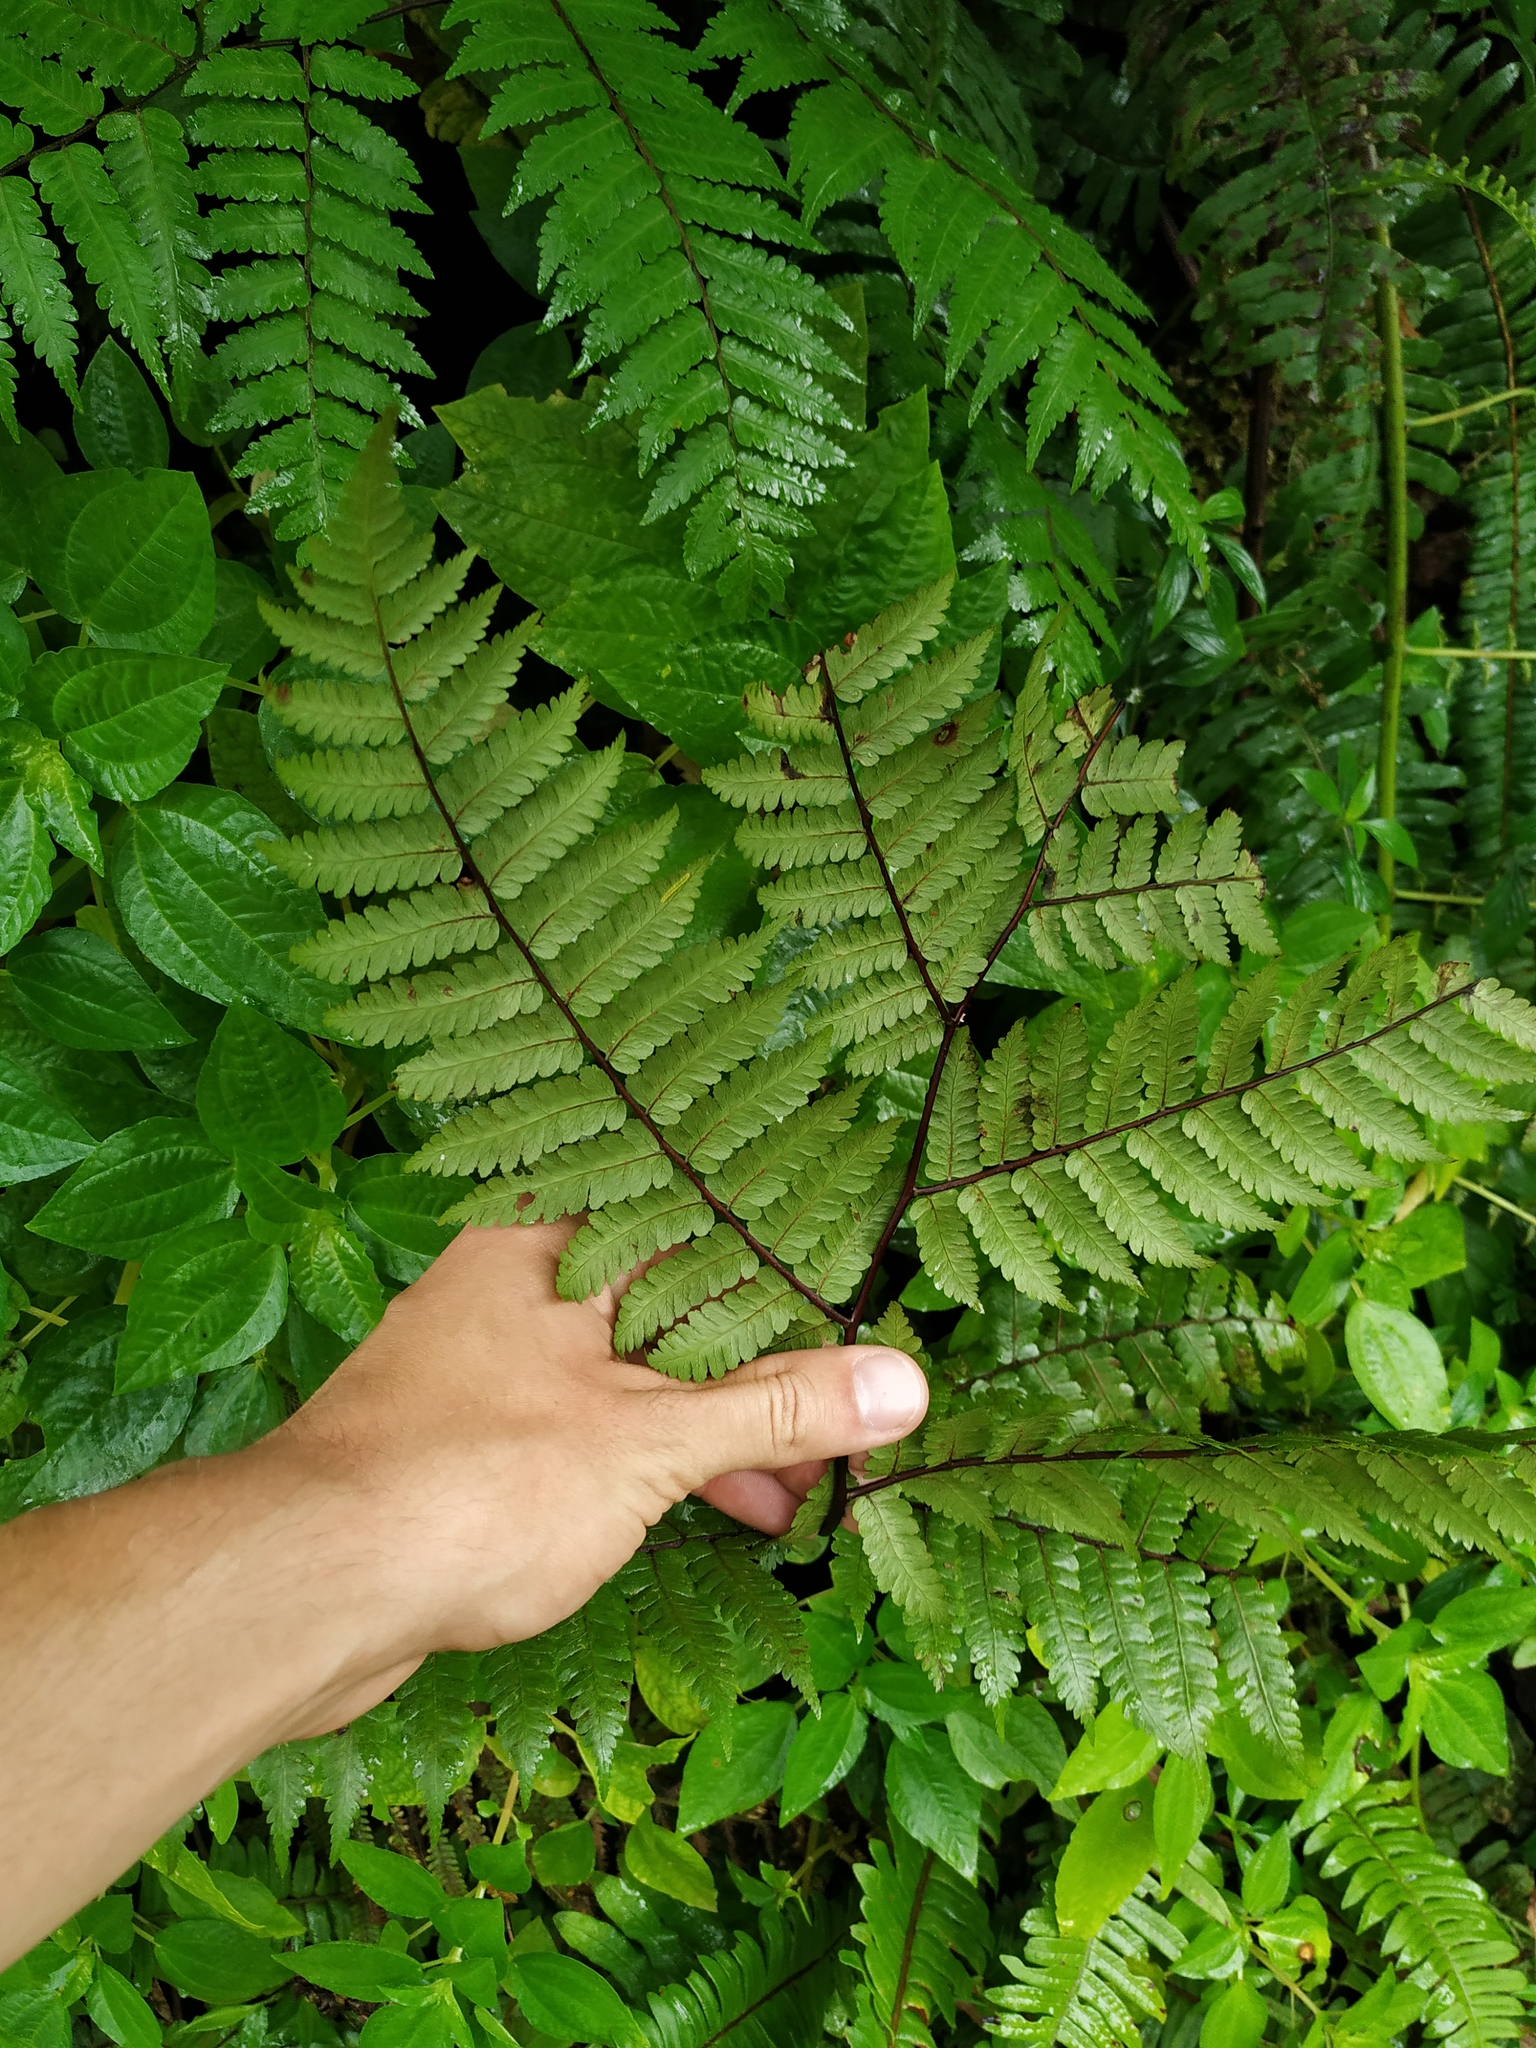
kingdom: Plantae
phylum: Tracheophyta
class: Polypodiopsida
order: Cyatheales
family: Cyatheaceae
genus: Cyathea
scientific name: Cyathea aspera
